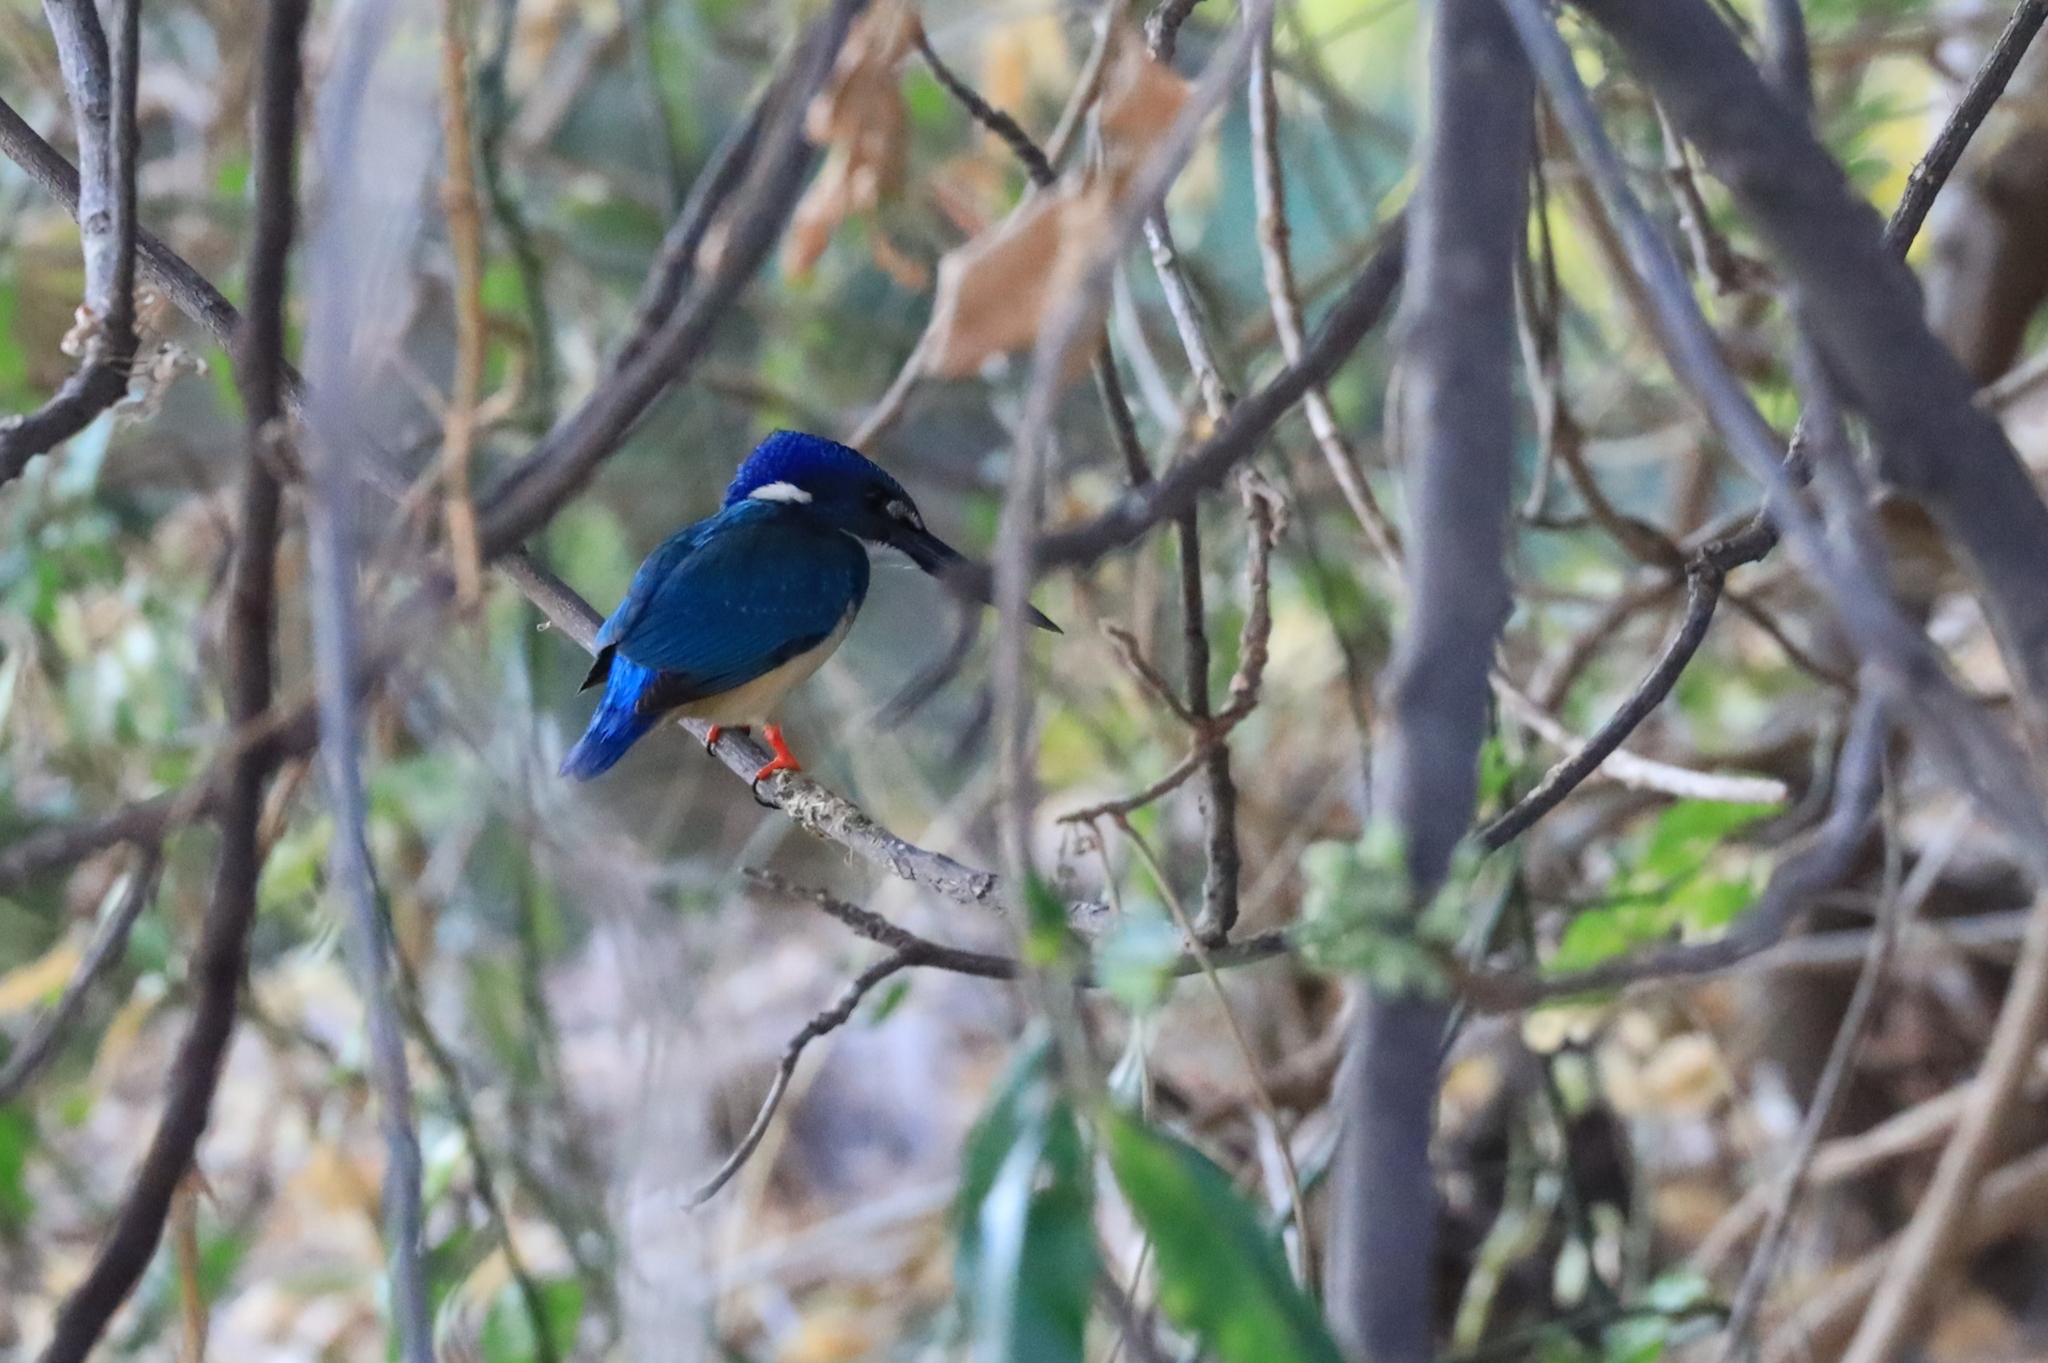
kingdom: Animalia
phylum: Chordata
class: Aves
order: Coraciiformes
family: Alcedinidae
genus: Alcedo
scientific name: Alcedo semitorquata
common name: Half-collared kingfisher
